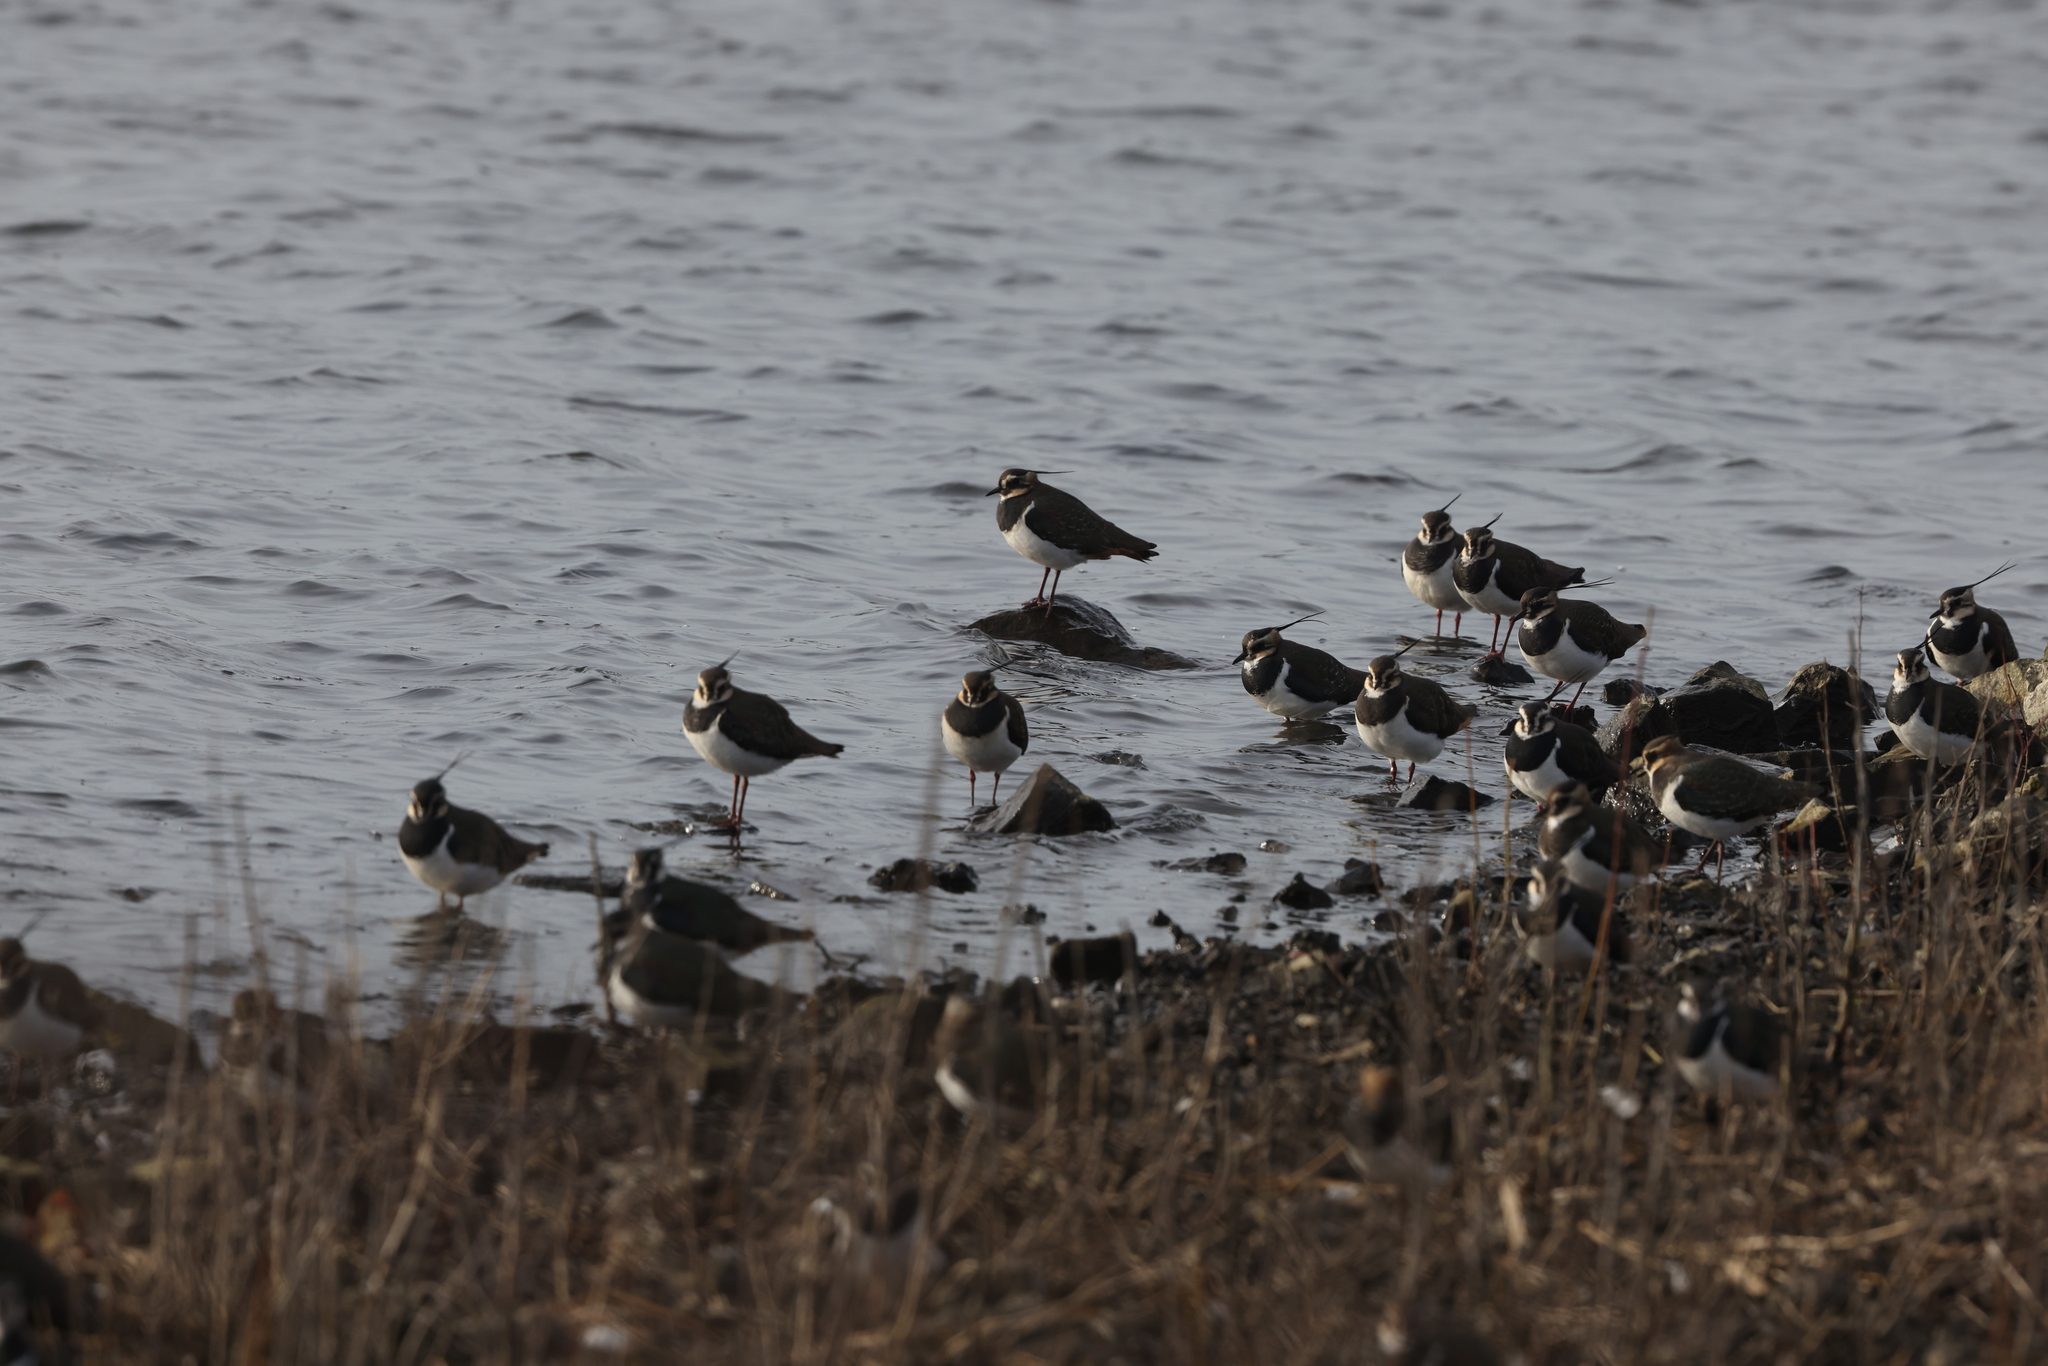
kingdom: Animalia
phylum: Chordata
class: Aves
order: Charadriiformes
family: Charadriidae
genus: Vanellus
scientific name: Vanellus vanellus
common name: Northern lapwing
